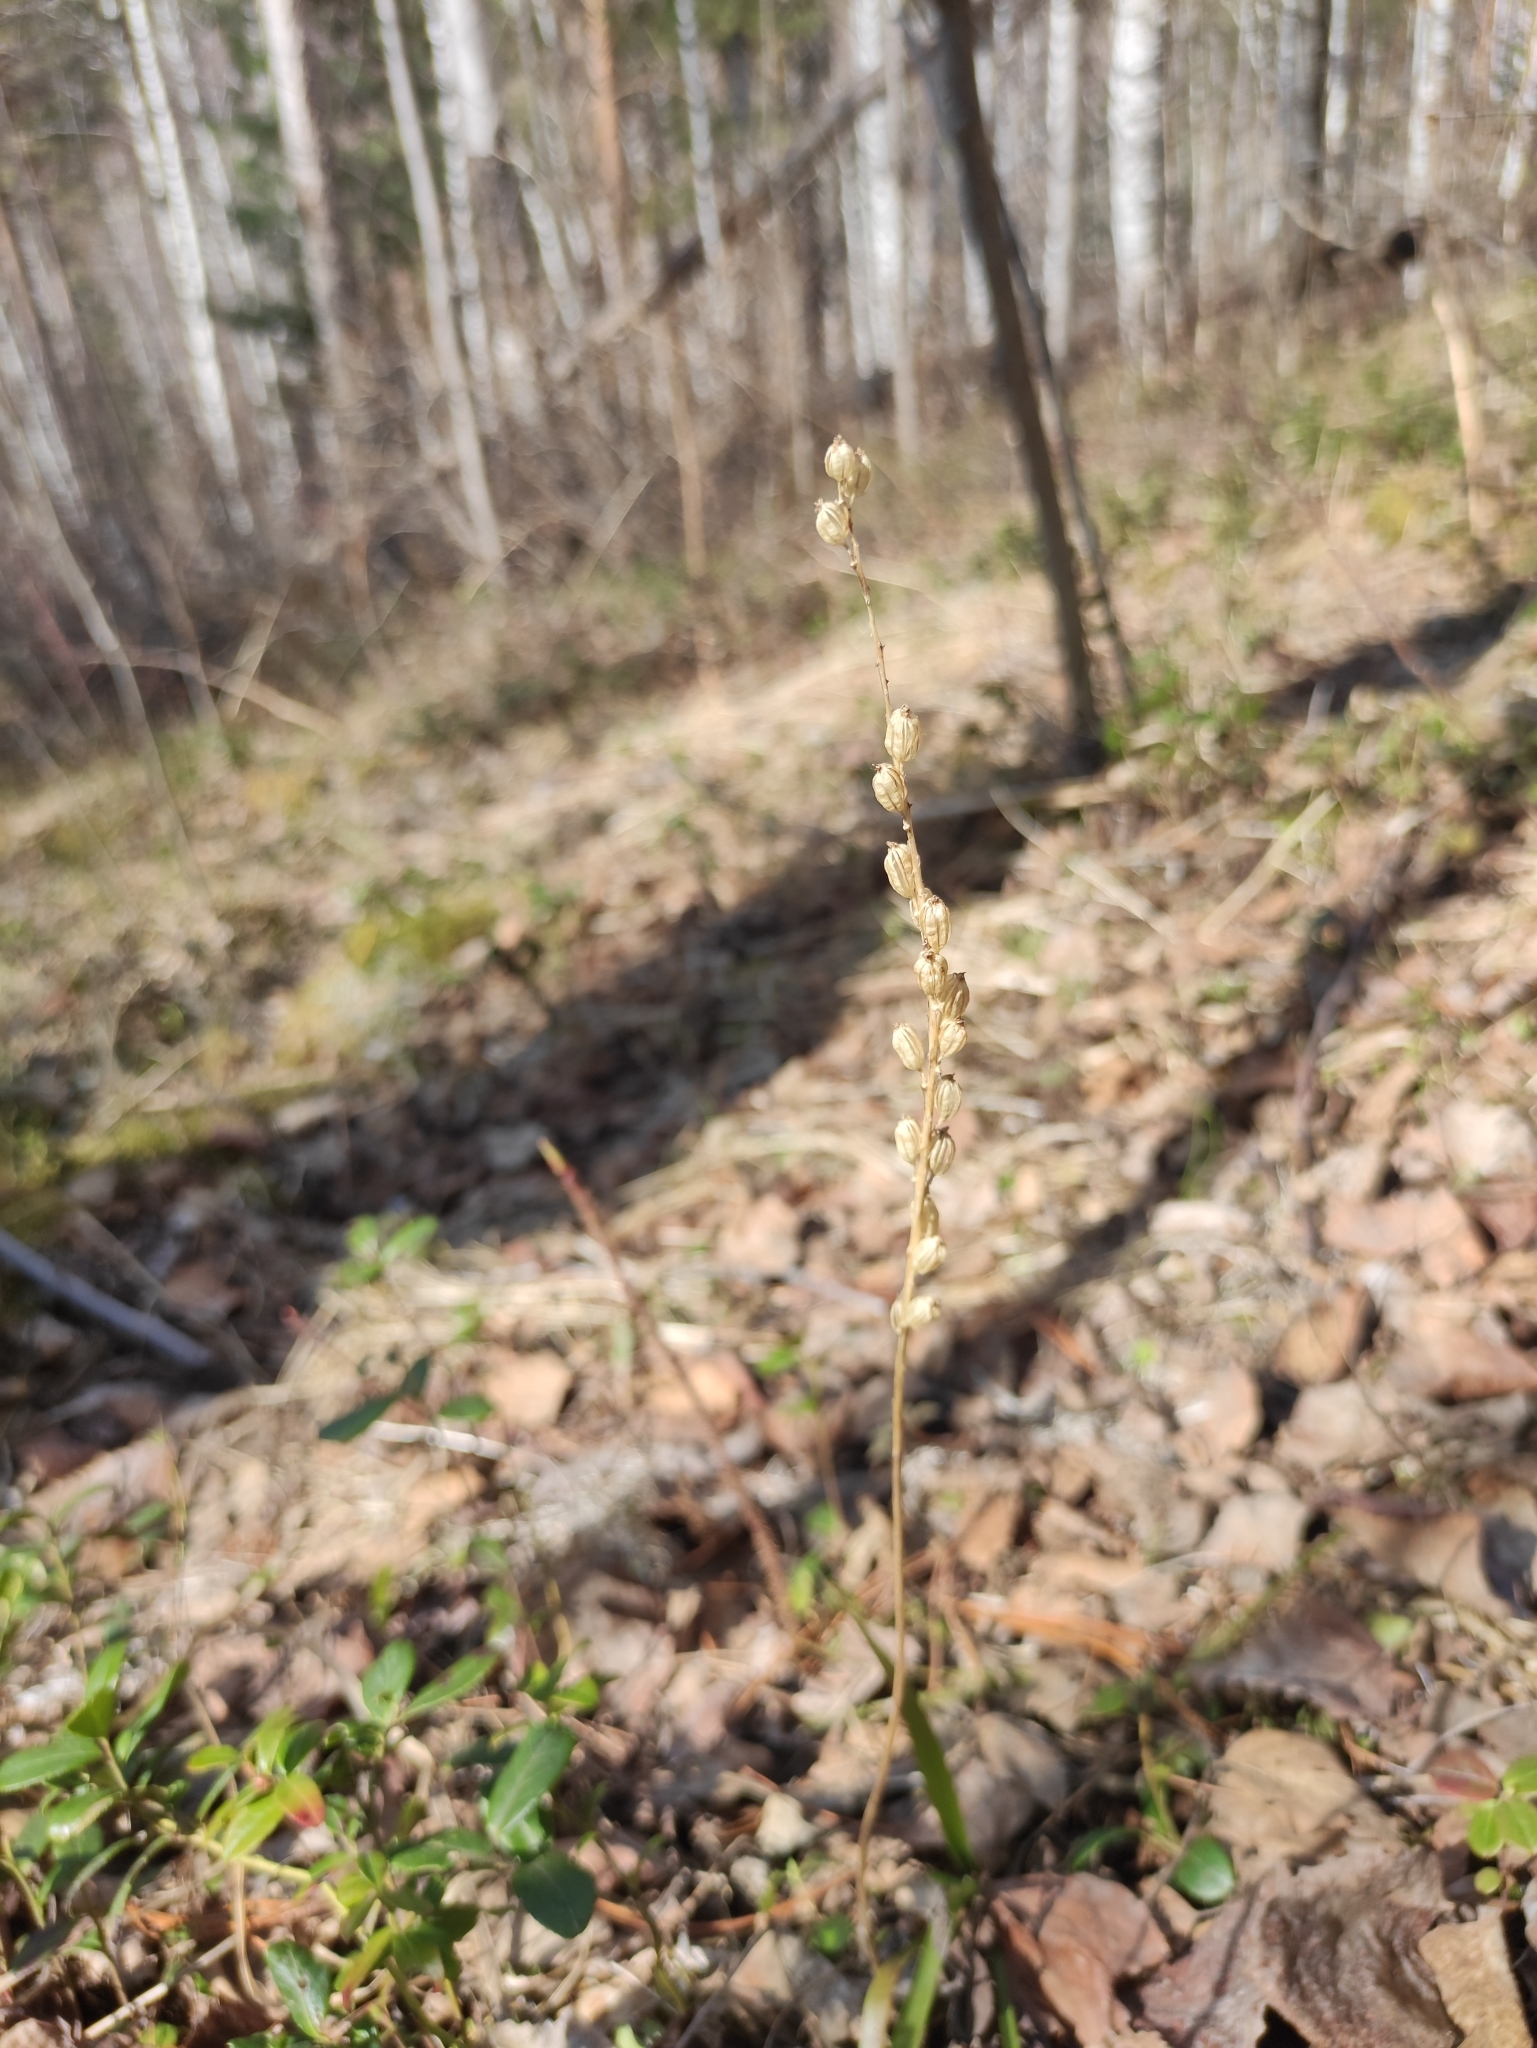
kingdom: Plantae
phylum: Tracheophyta
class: Liliopsida
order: Asparagales
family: Orchidaceae
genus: Malaxis
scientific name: Malaxis monophyllos
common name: White adder's-mouth
